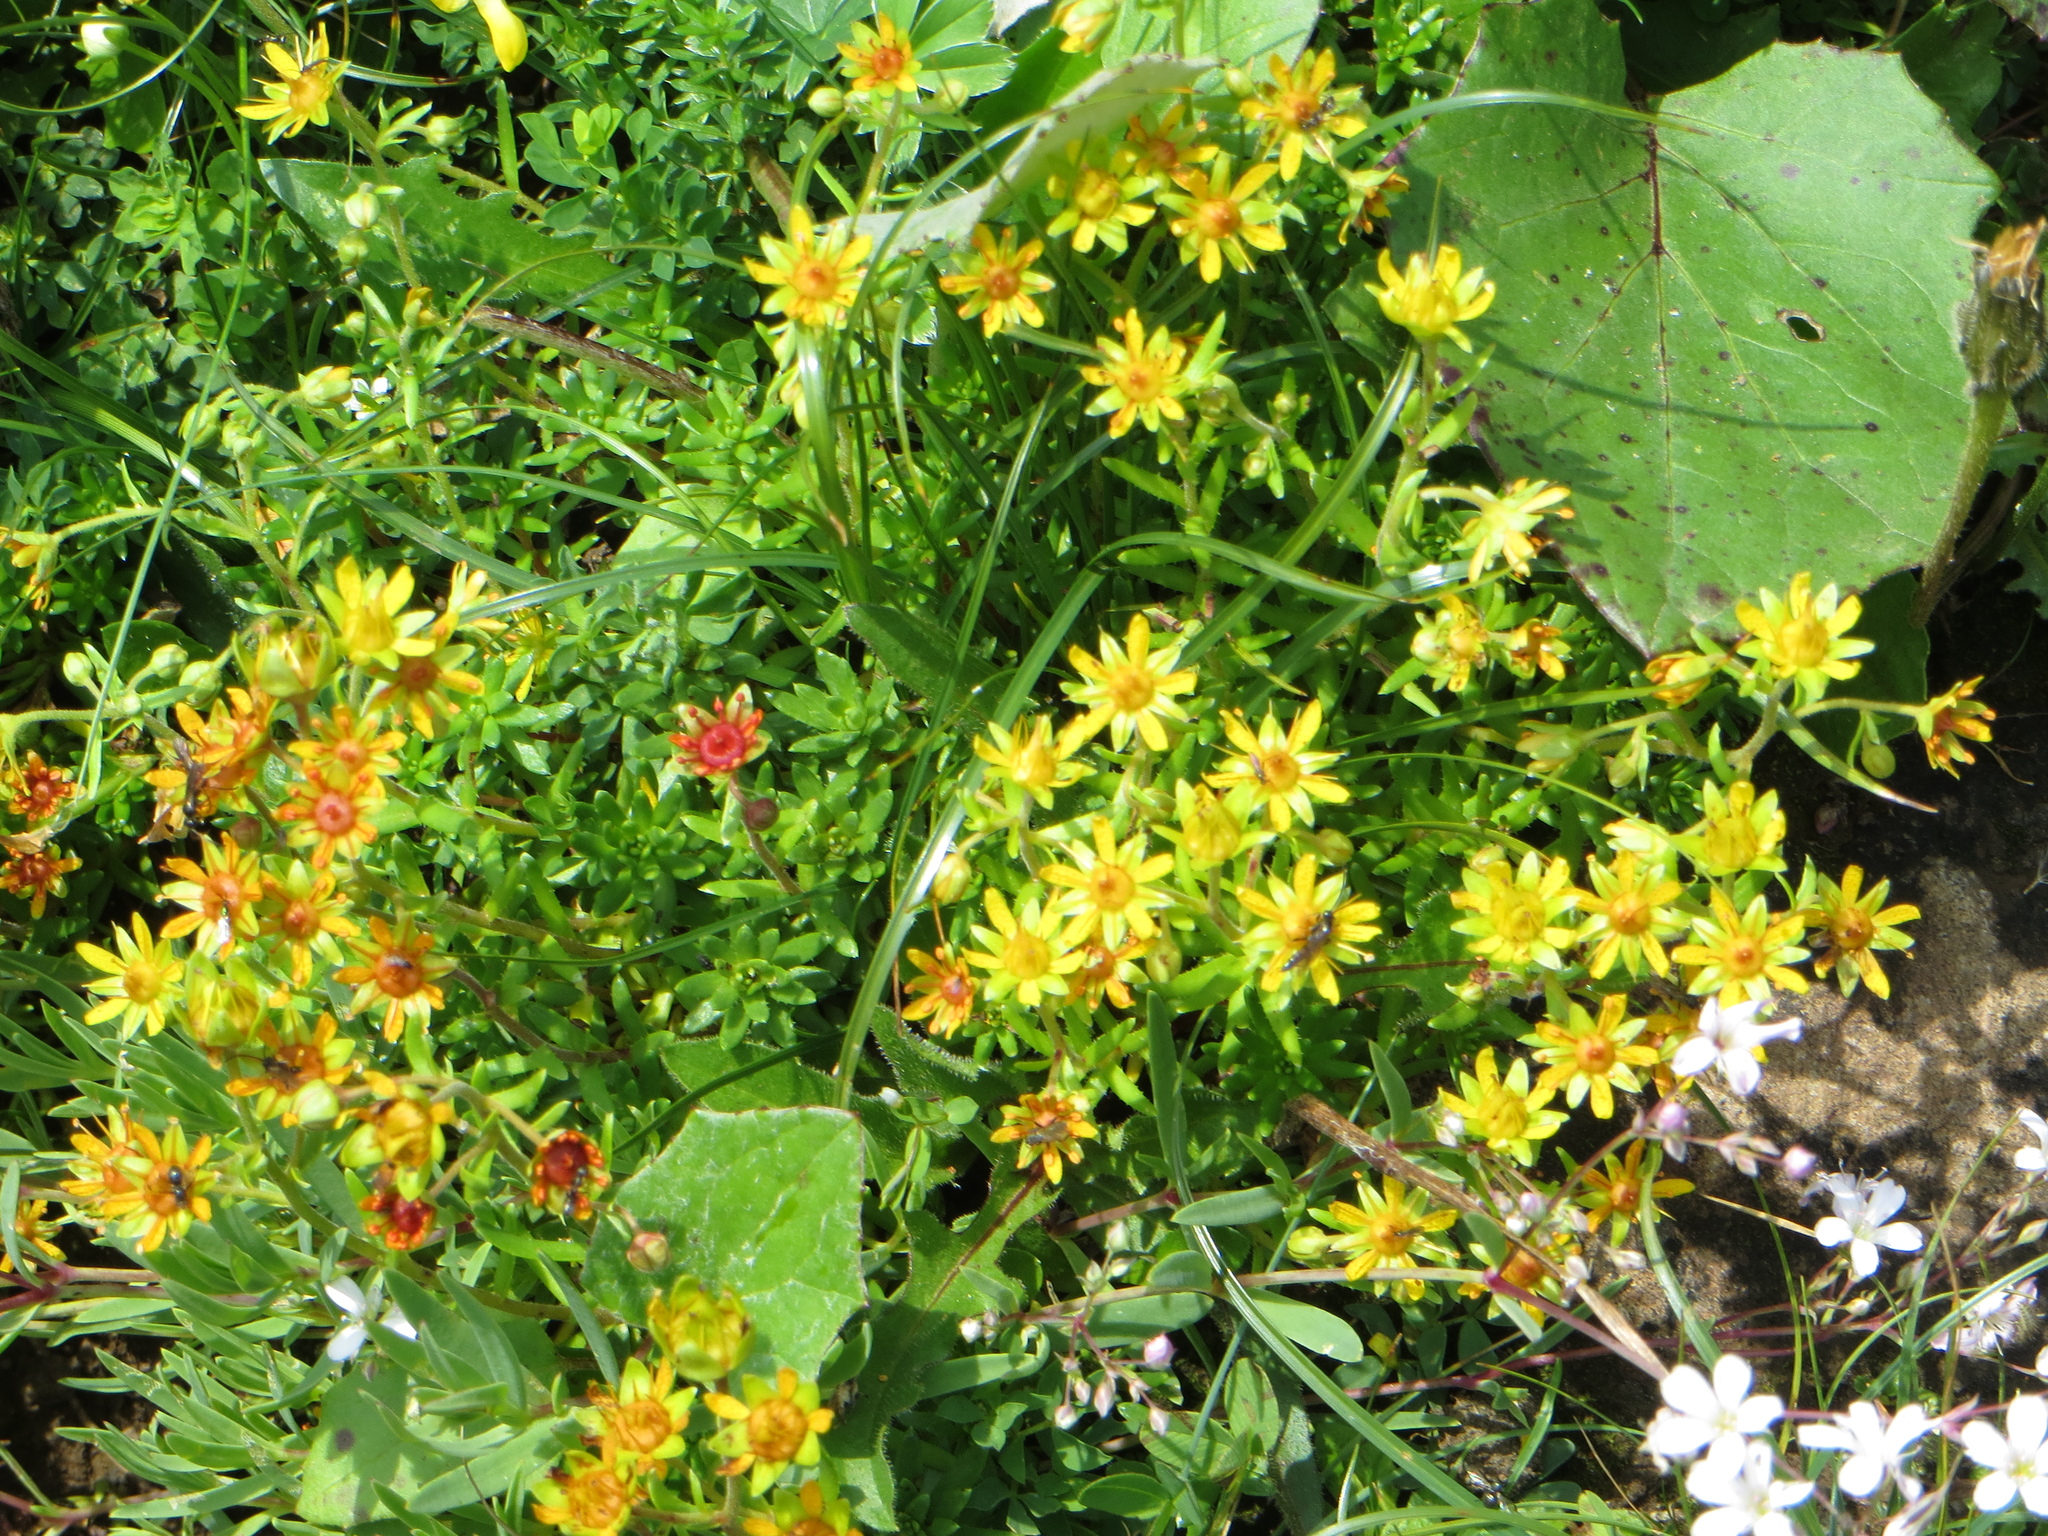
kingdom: Plantae
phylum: Tracheophyta
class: Magnoliopsida
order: Saxifragales
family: Saxifragaceae
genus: Saxifraga
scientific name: Saxifraga aizoides
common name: Yellow mountain saxifrage
